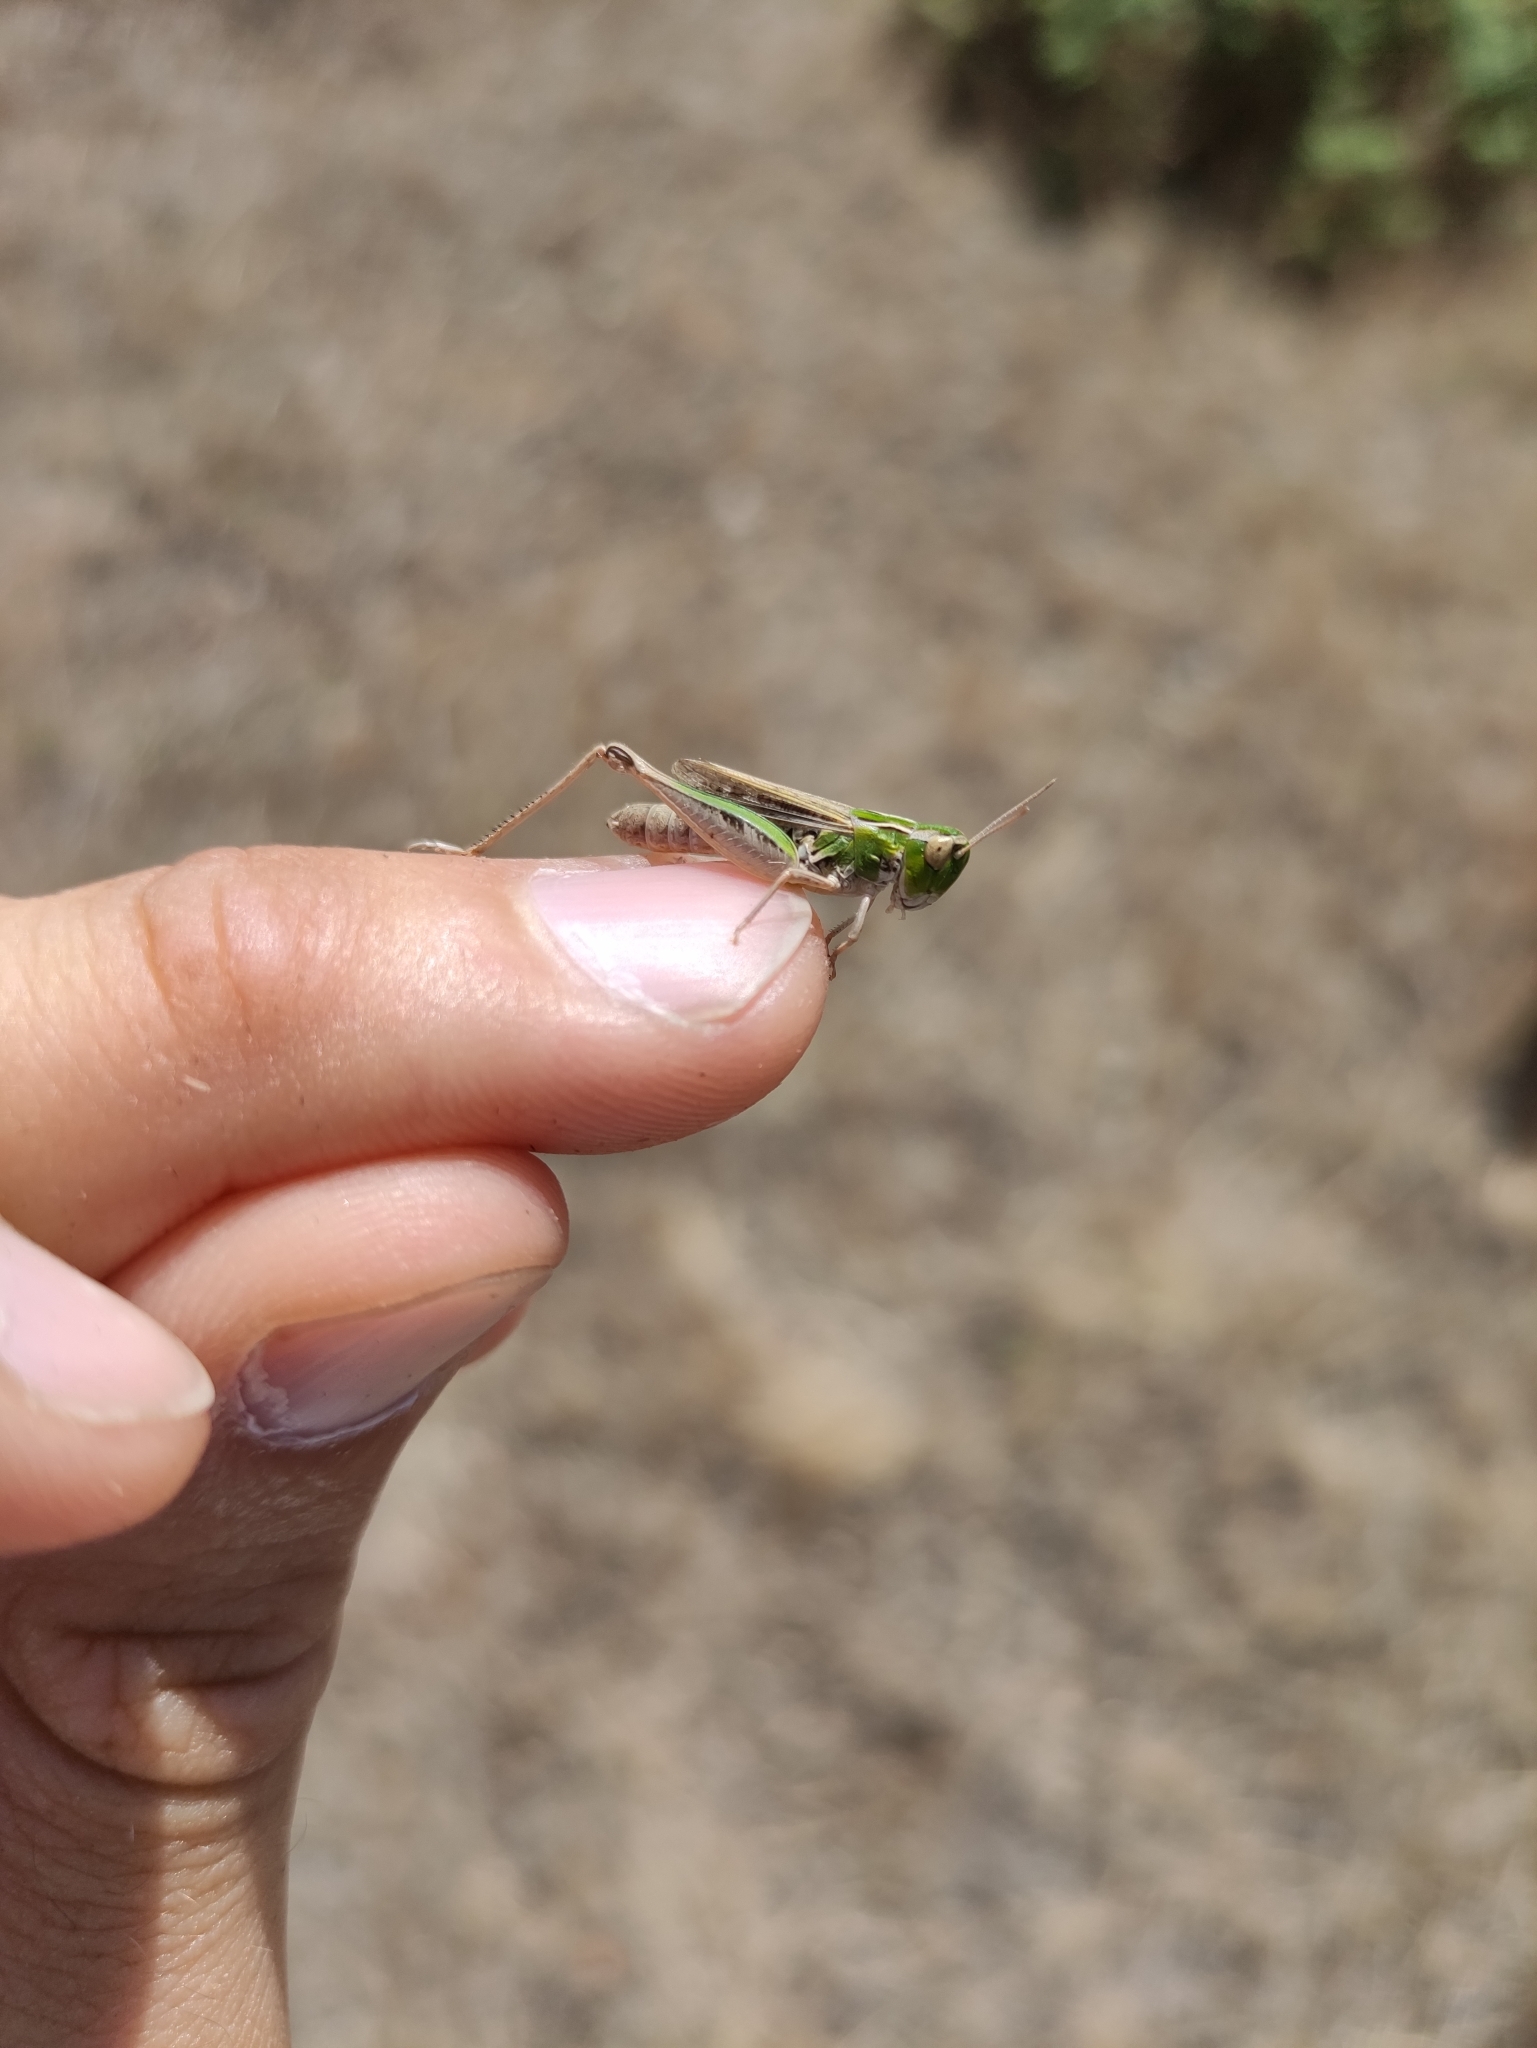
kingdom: Animalia
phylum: Arthropoda
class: Insecta
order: Orthoptera
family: Acrididae
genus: Stenobothrus
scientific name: Stenobothrus stigmaticus
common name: Lesser mottled grasshopper
